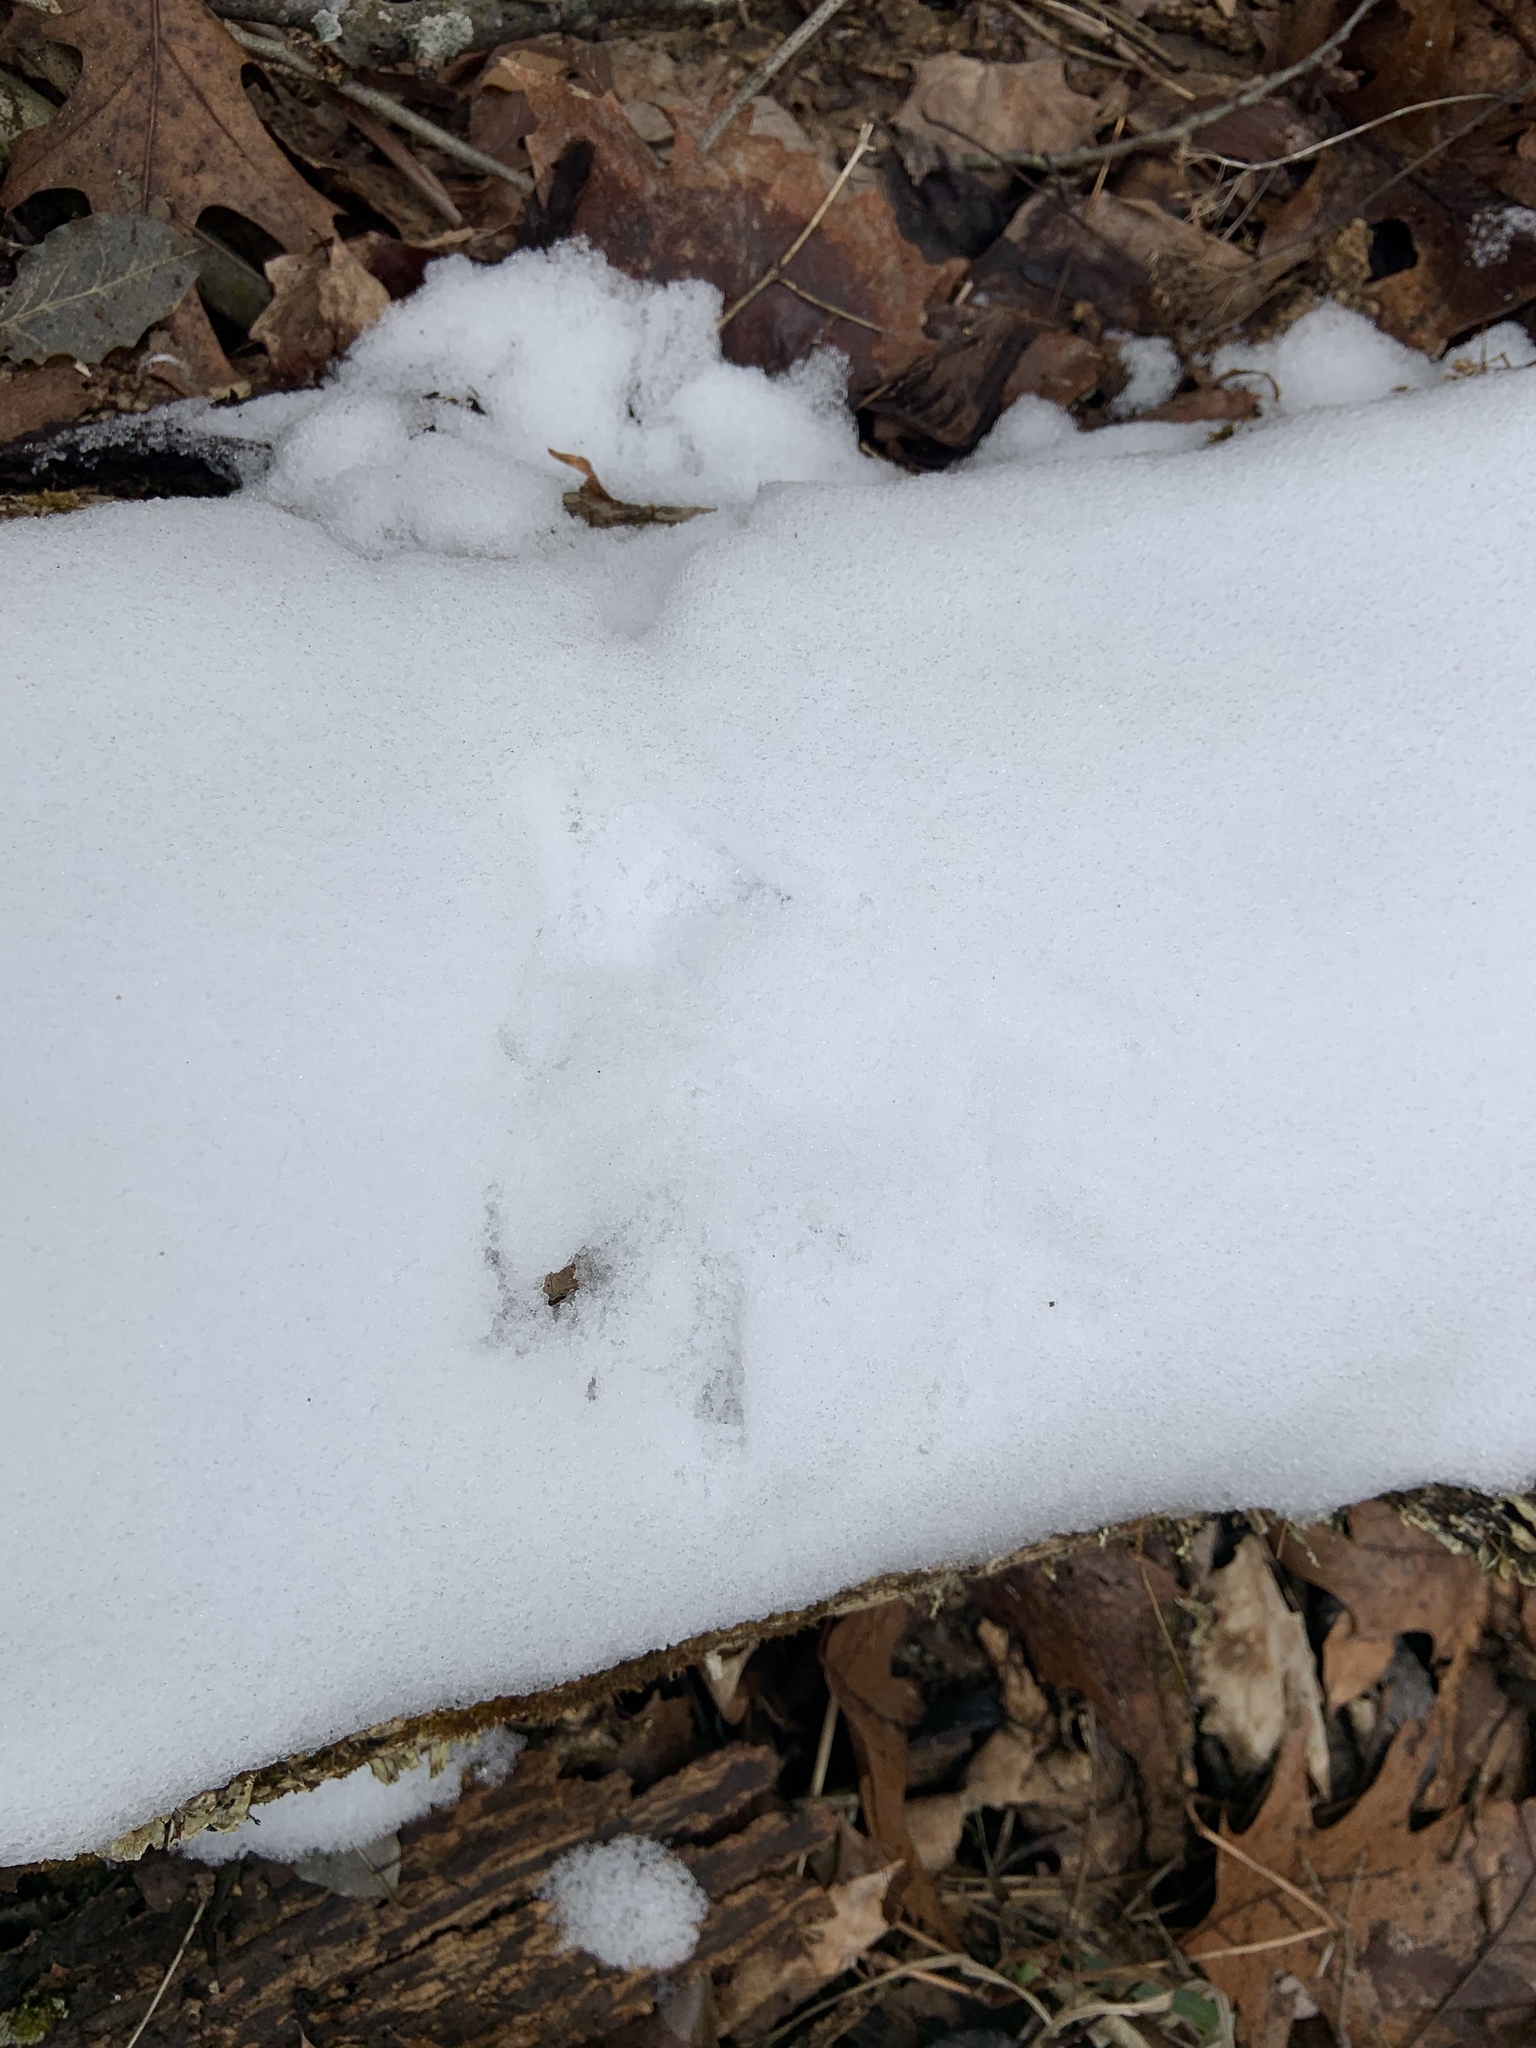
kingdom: Animalia
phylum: Chordata
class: Aves
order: Galliformes
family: Phasianidae
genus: Bonasa
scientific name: Bonasa umbellus
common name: Ruffed grouse
